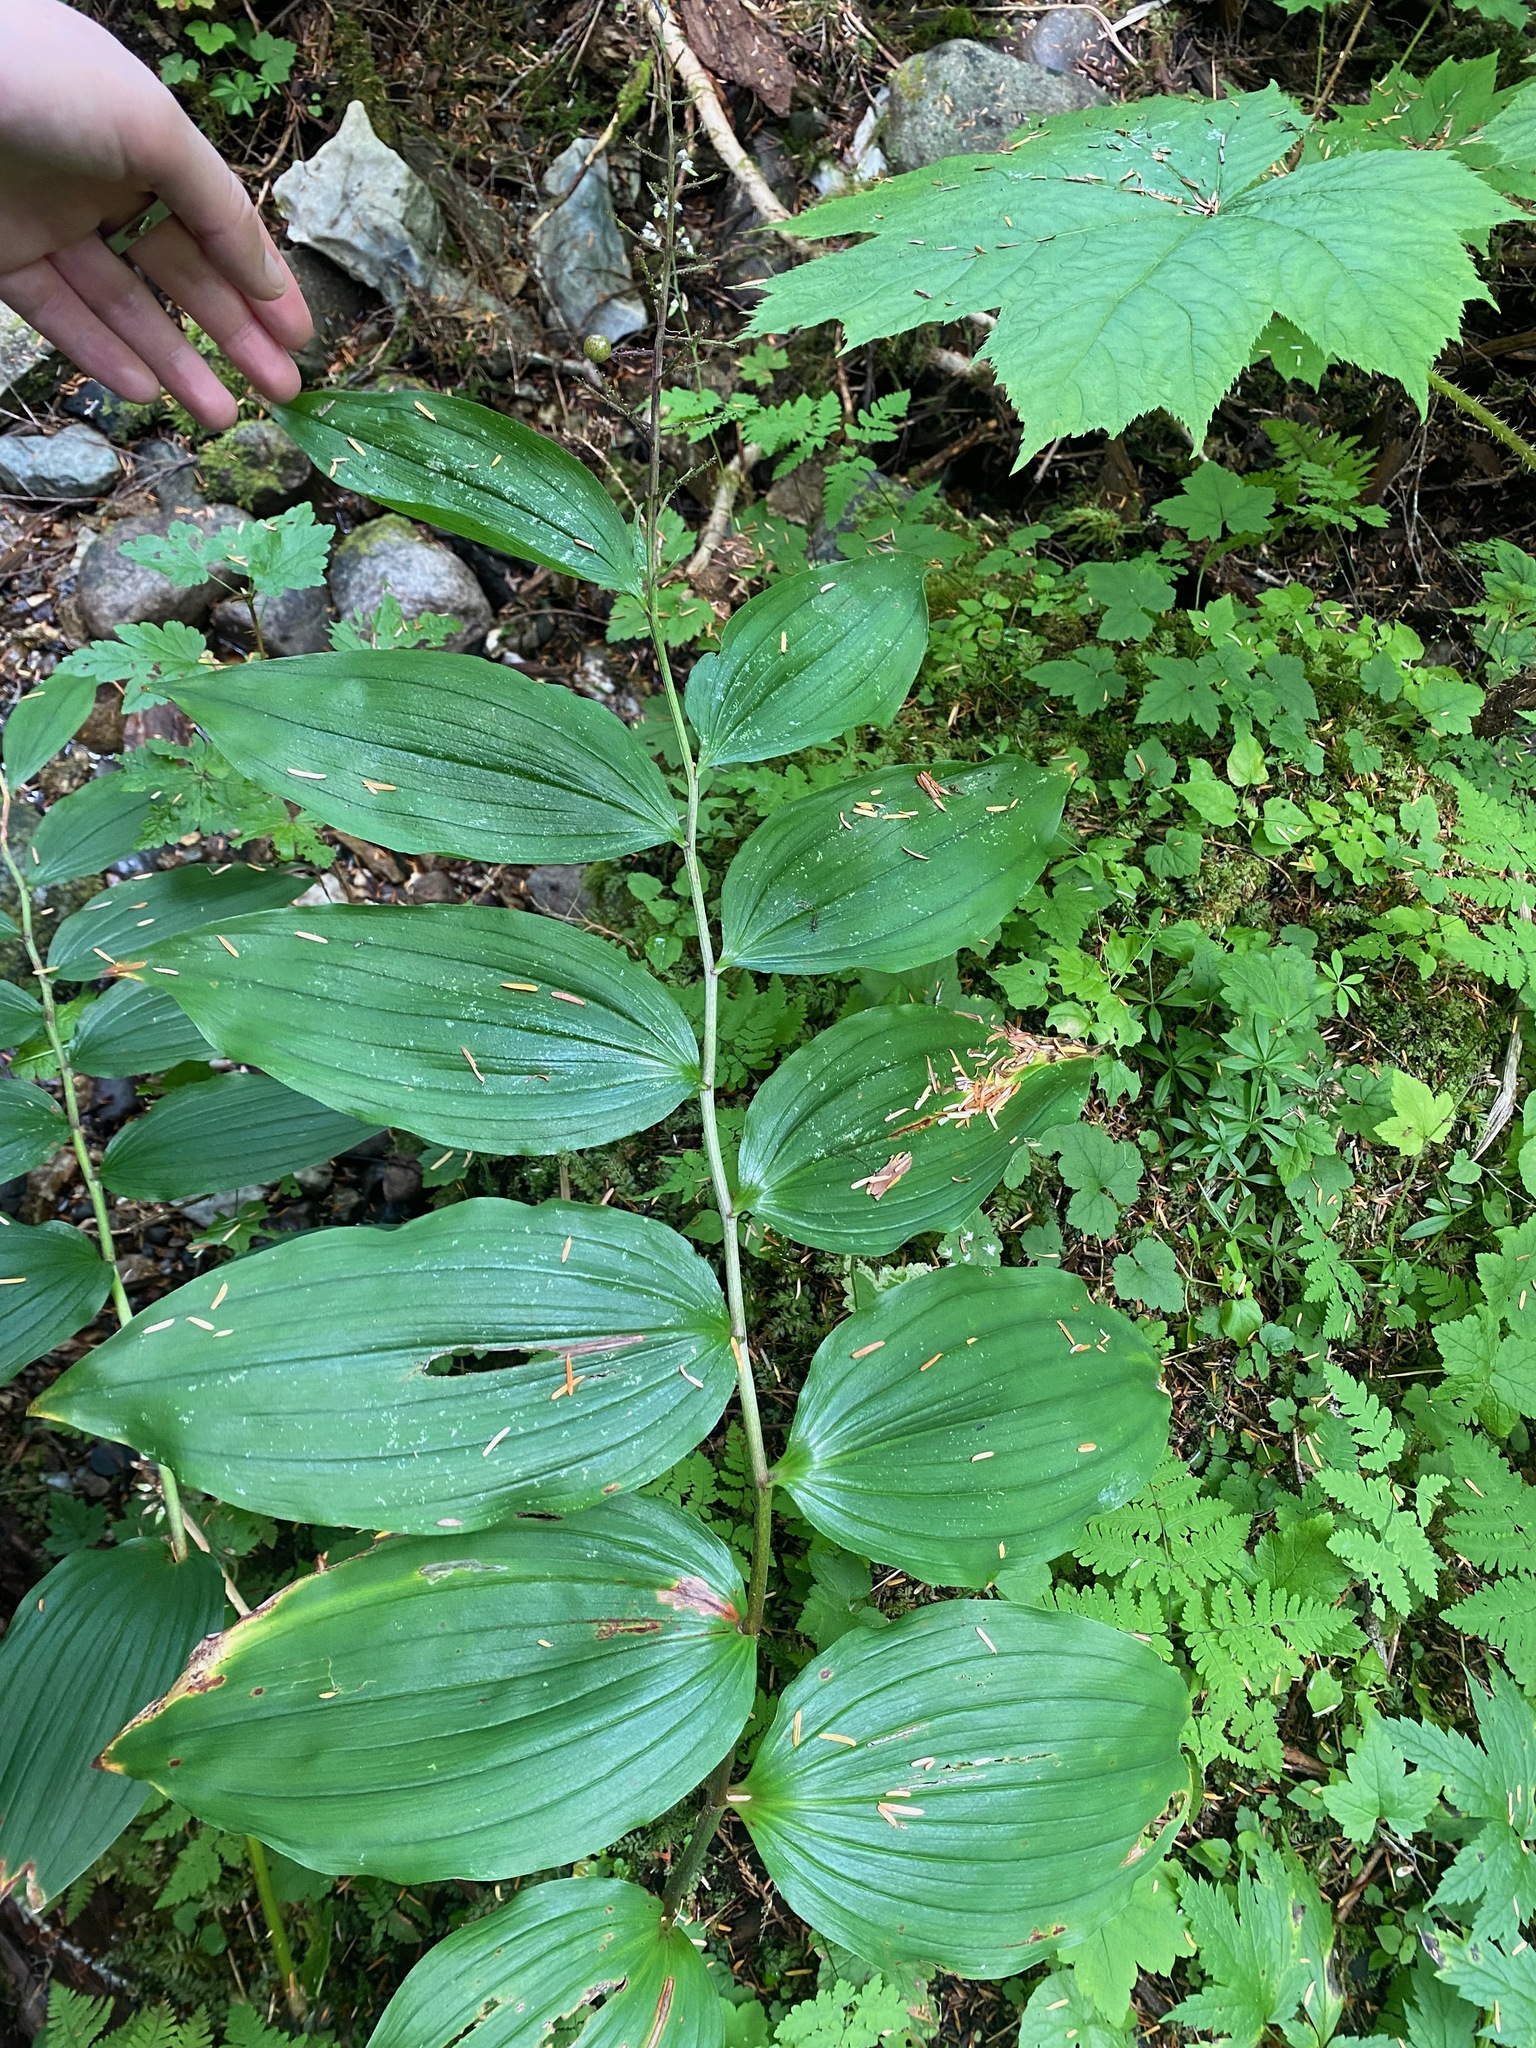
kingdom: Plantae
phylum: Tracheophyta
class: Liliopsida
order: Asparagales
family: Asparagaceae
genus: Maianthemum
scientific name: Maianthemum racemosum
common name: False spikenard
